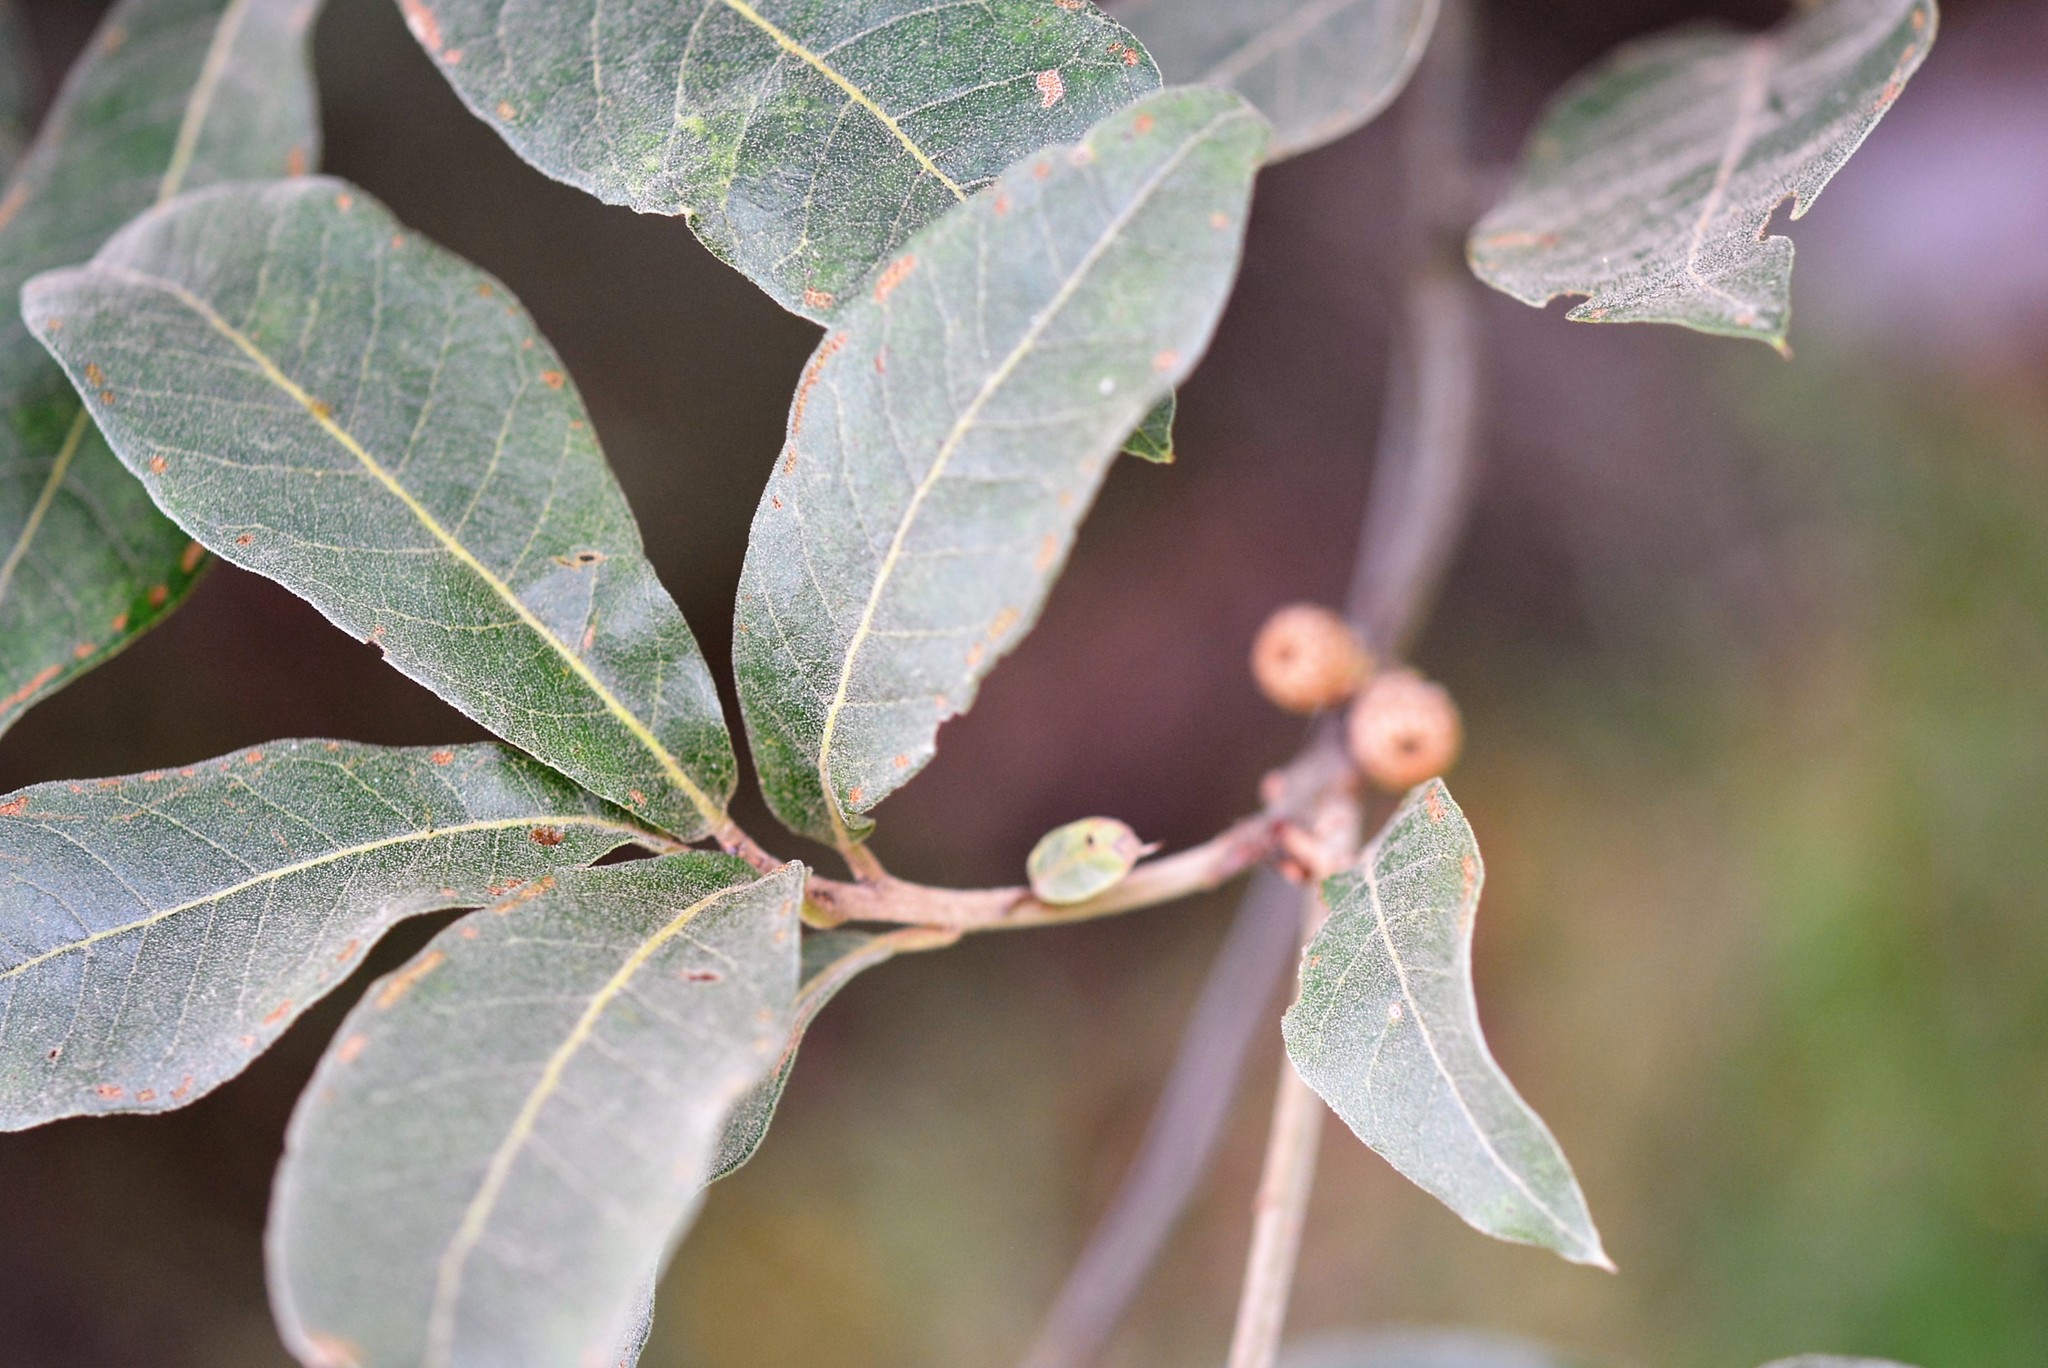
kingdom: Plantae
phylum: Tracheophyta
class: Magnoliopsida
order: Fagales
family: Fagaceae
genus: Quercus
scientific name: Quercus crispipilis
